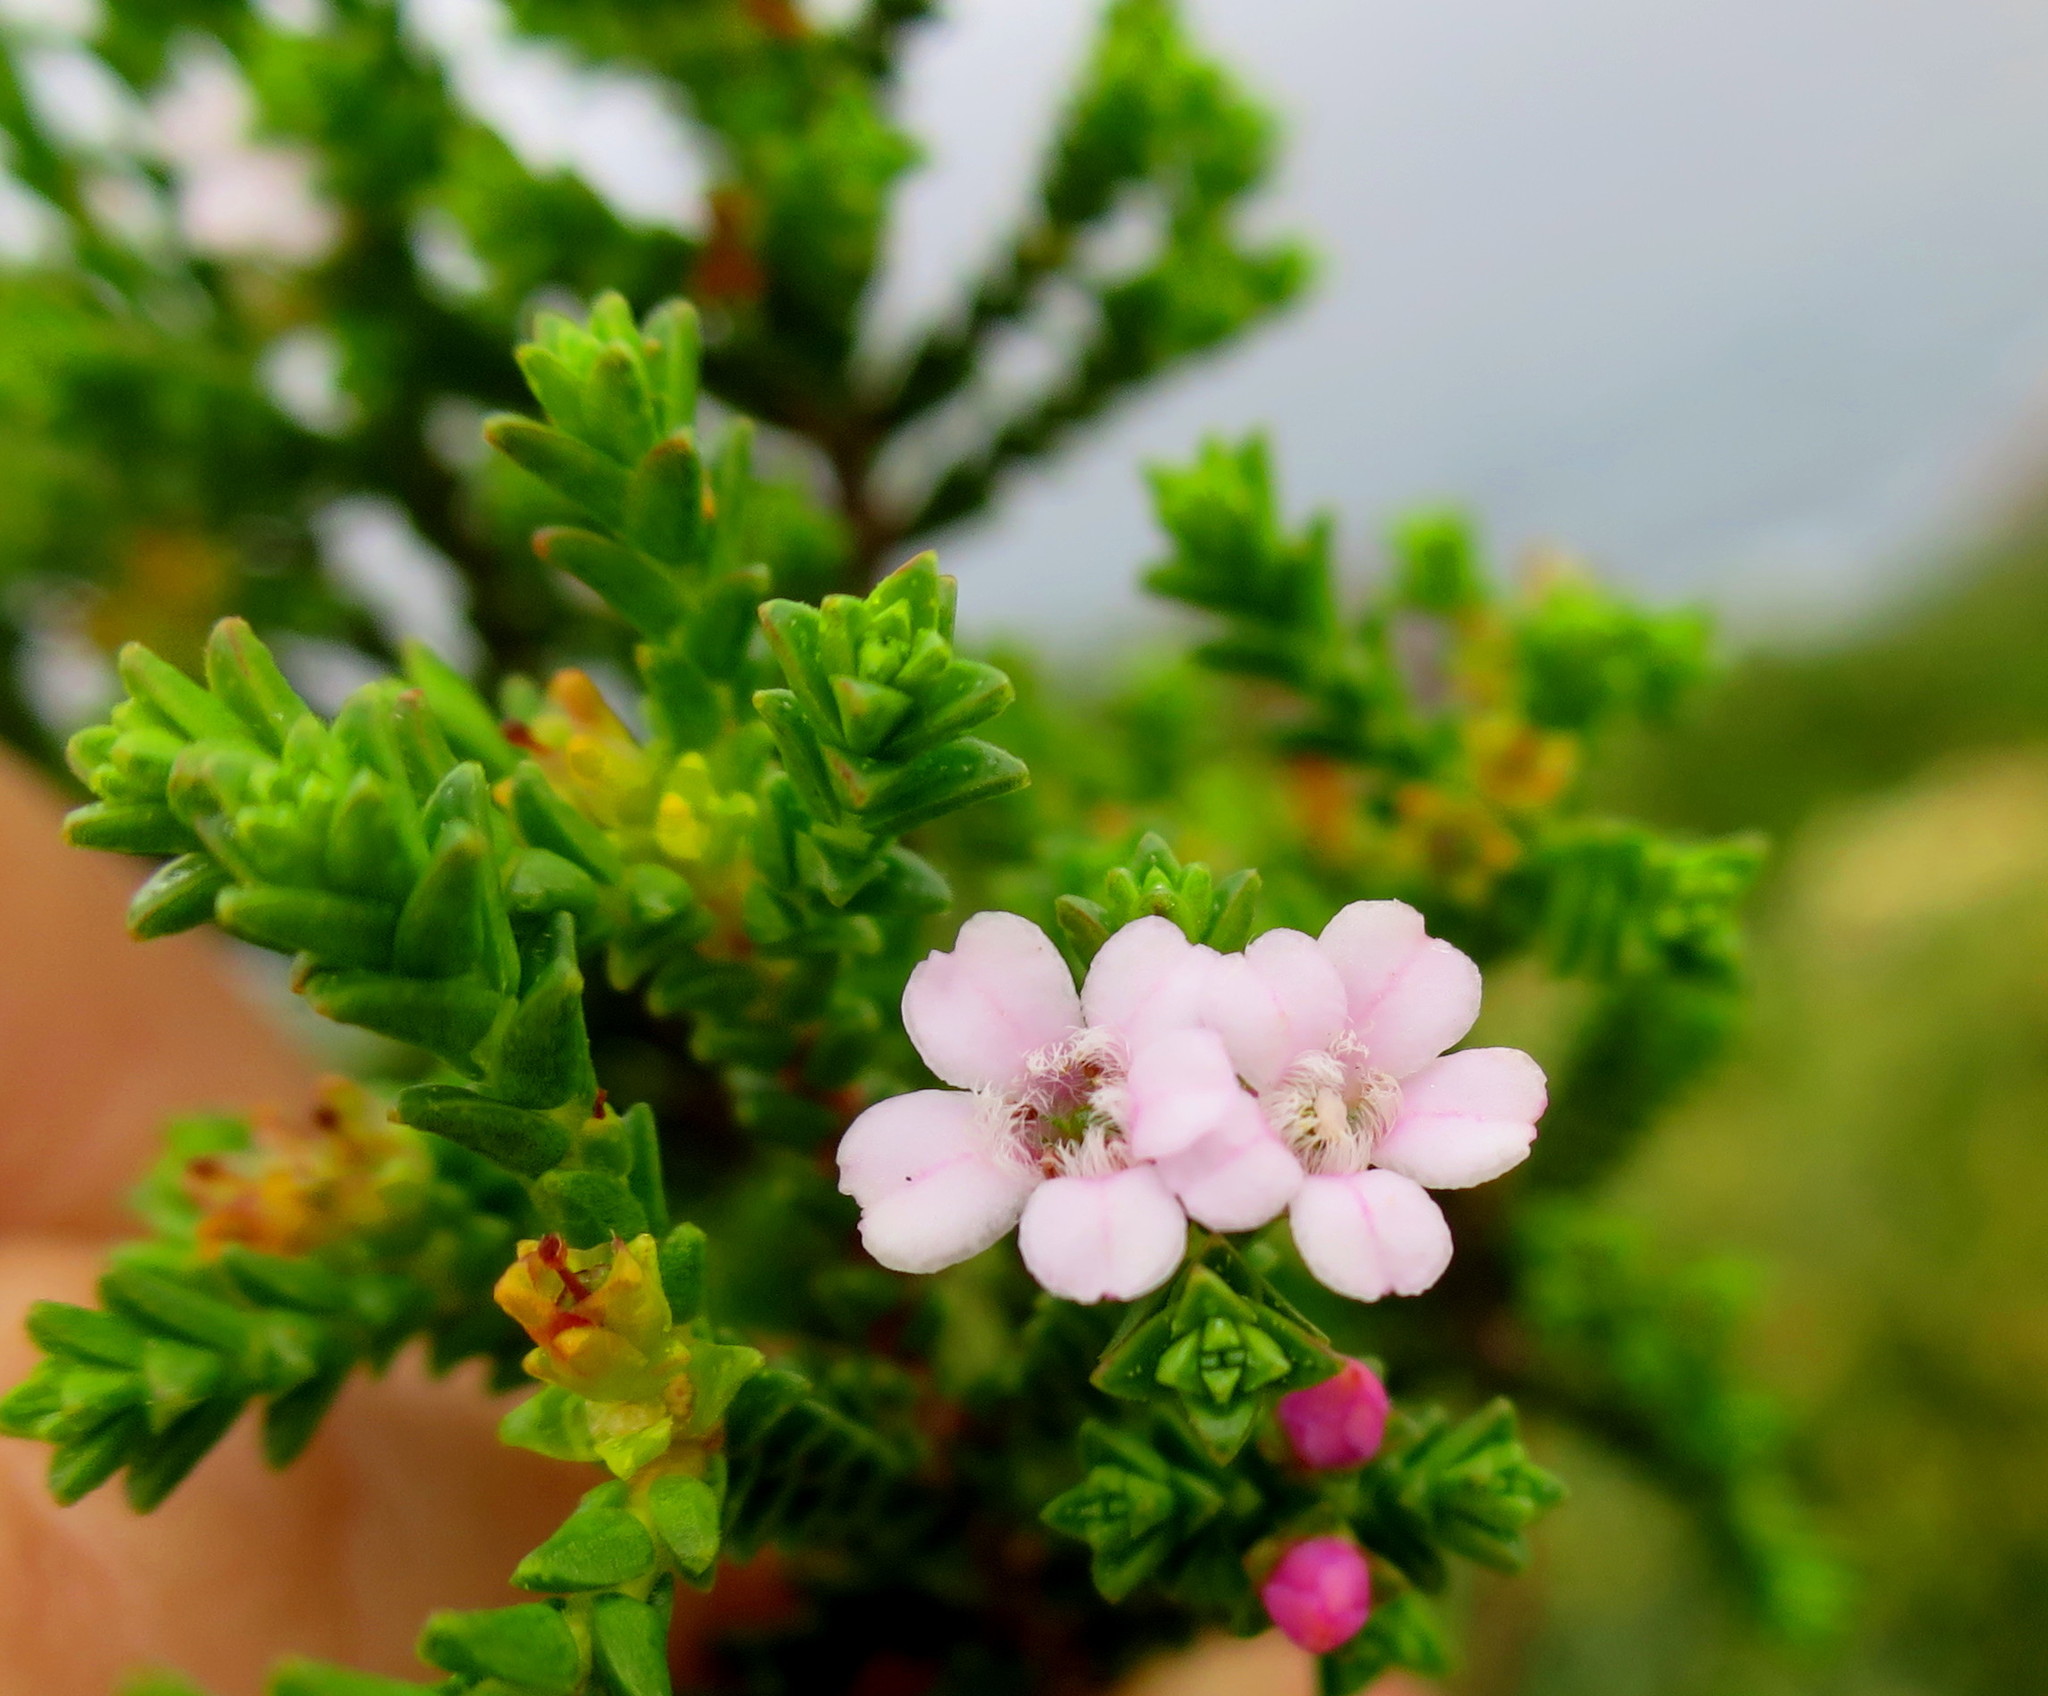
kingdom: Plantae
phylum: Tracheophyta
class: Magnoliopsida
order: Sapindales
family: Rutaceae
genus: Euchaetis
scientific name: Euchaetis albertiniana
